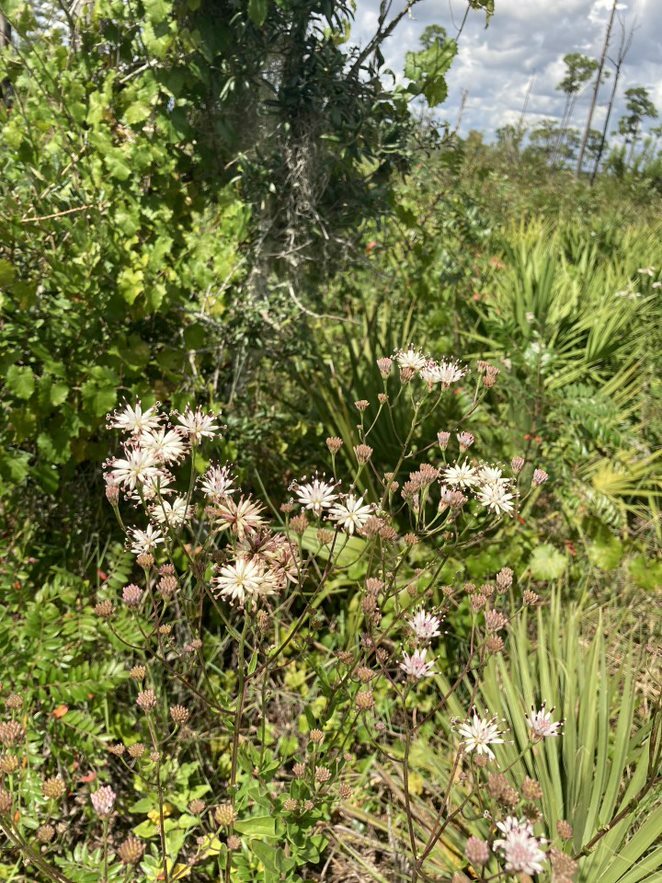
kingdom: Plantae
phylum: Tracheophyta
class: Magnoliopsida
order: Asterales
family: Asteraceae
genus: Palafoxia
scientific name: Palafoxia feayi
